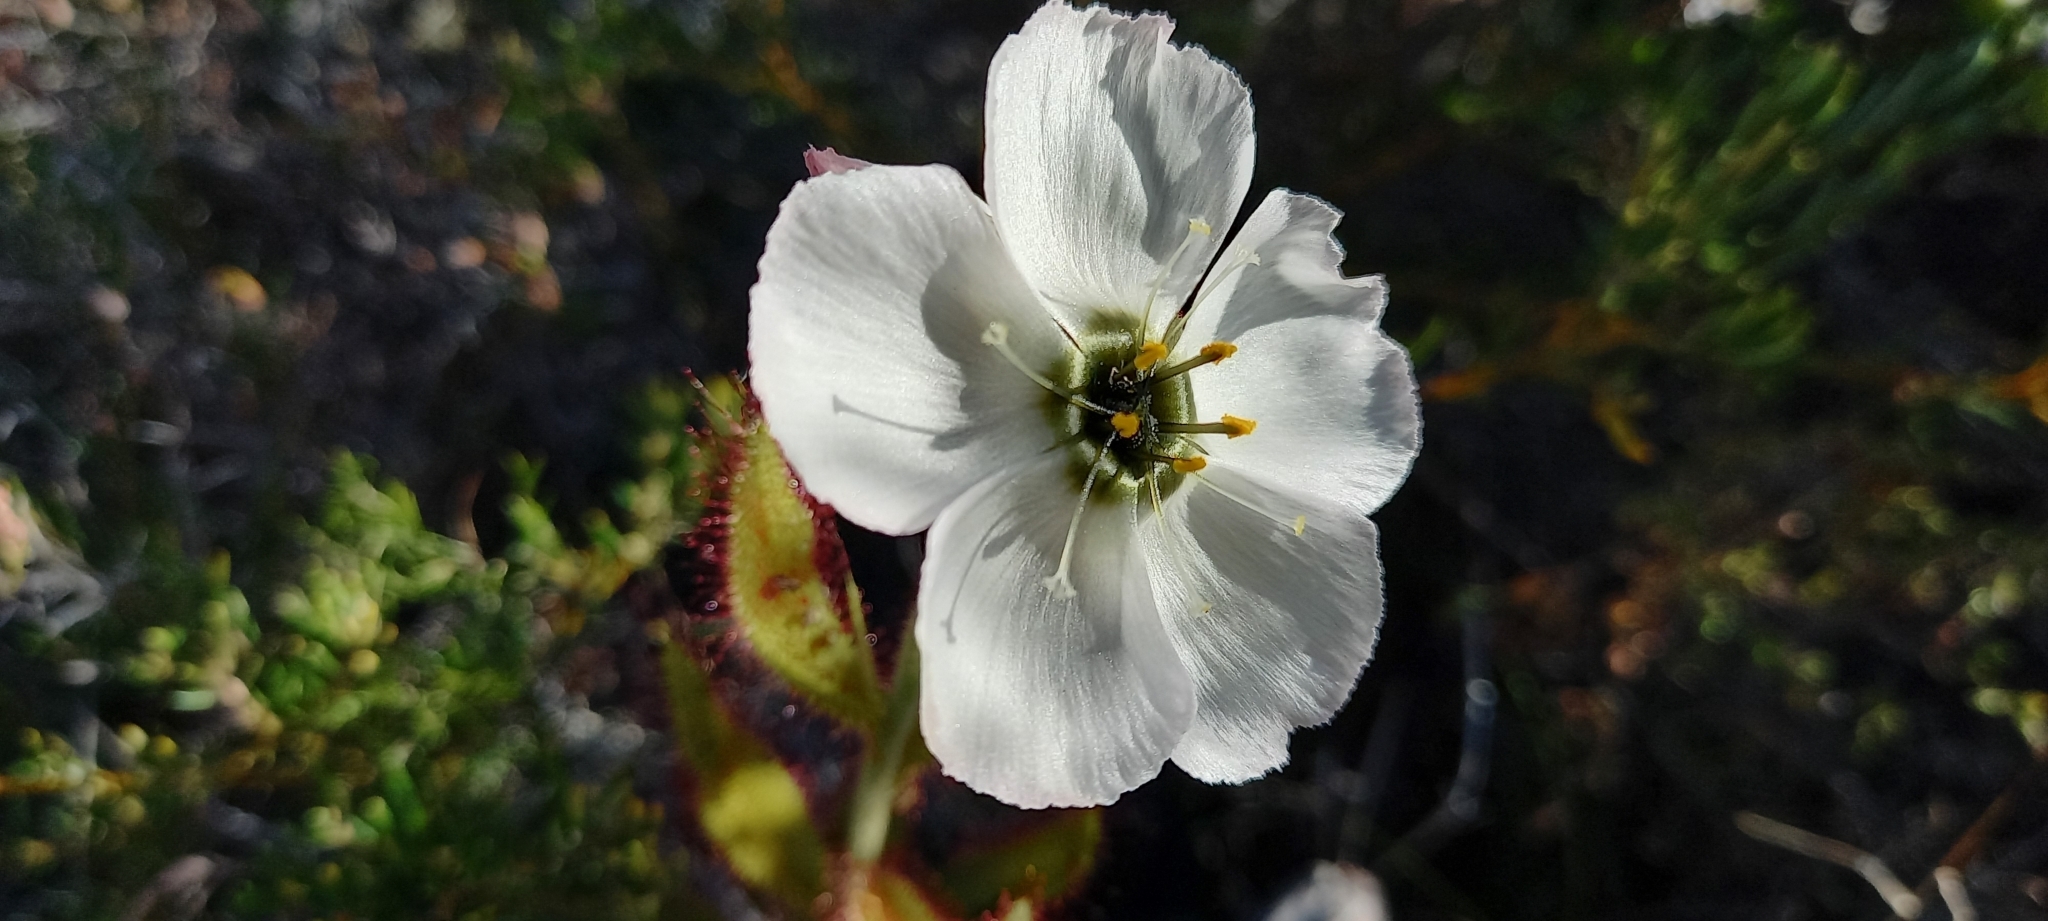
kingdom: Plantae
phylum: Tracheophyta
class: Magnoliopsida
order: Caryophyllales
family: Droseraceae
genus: Drosera
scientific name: Drosera cistiflora
